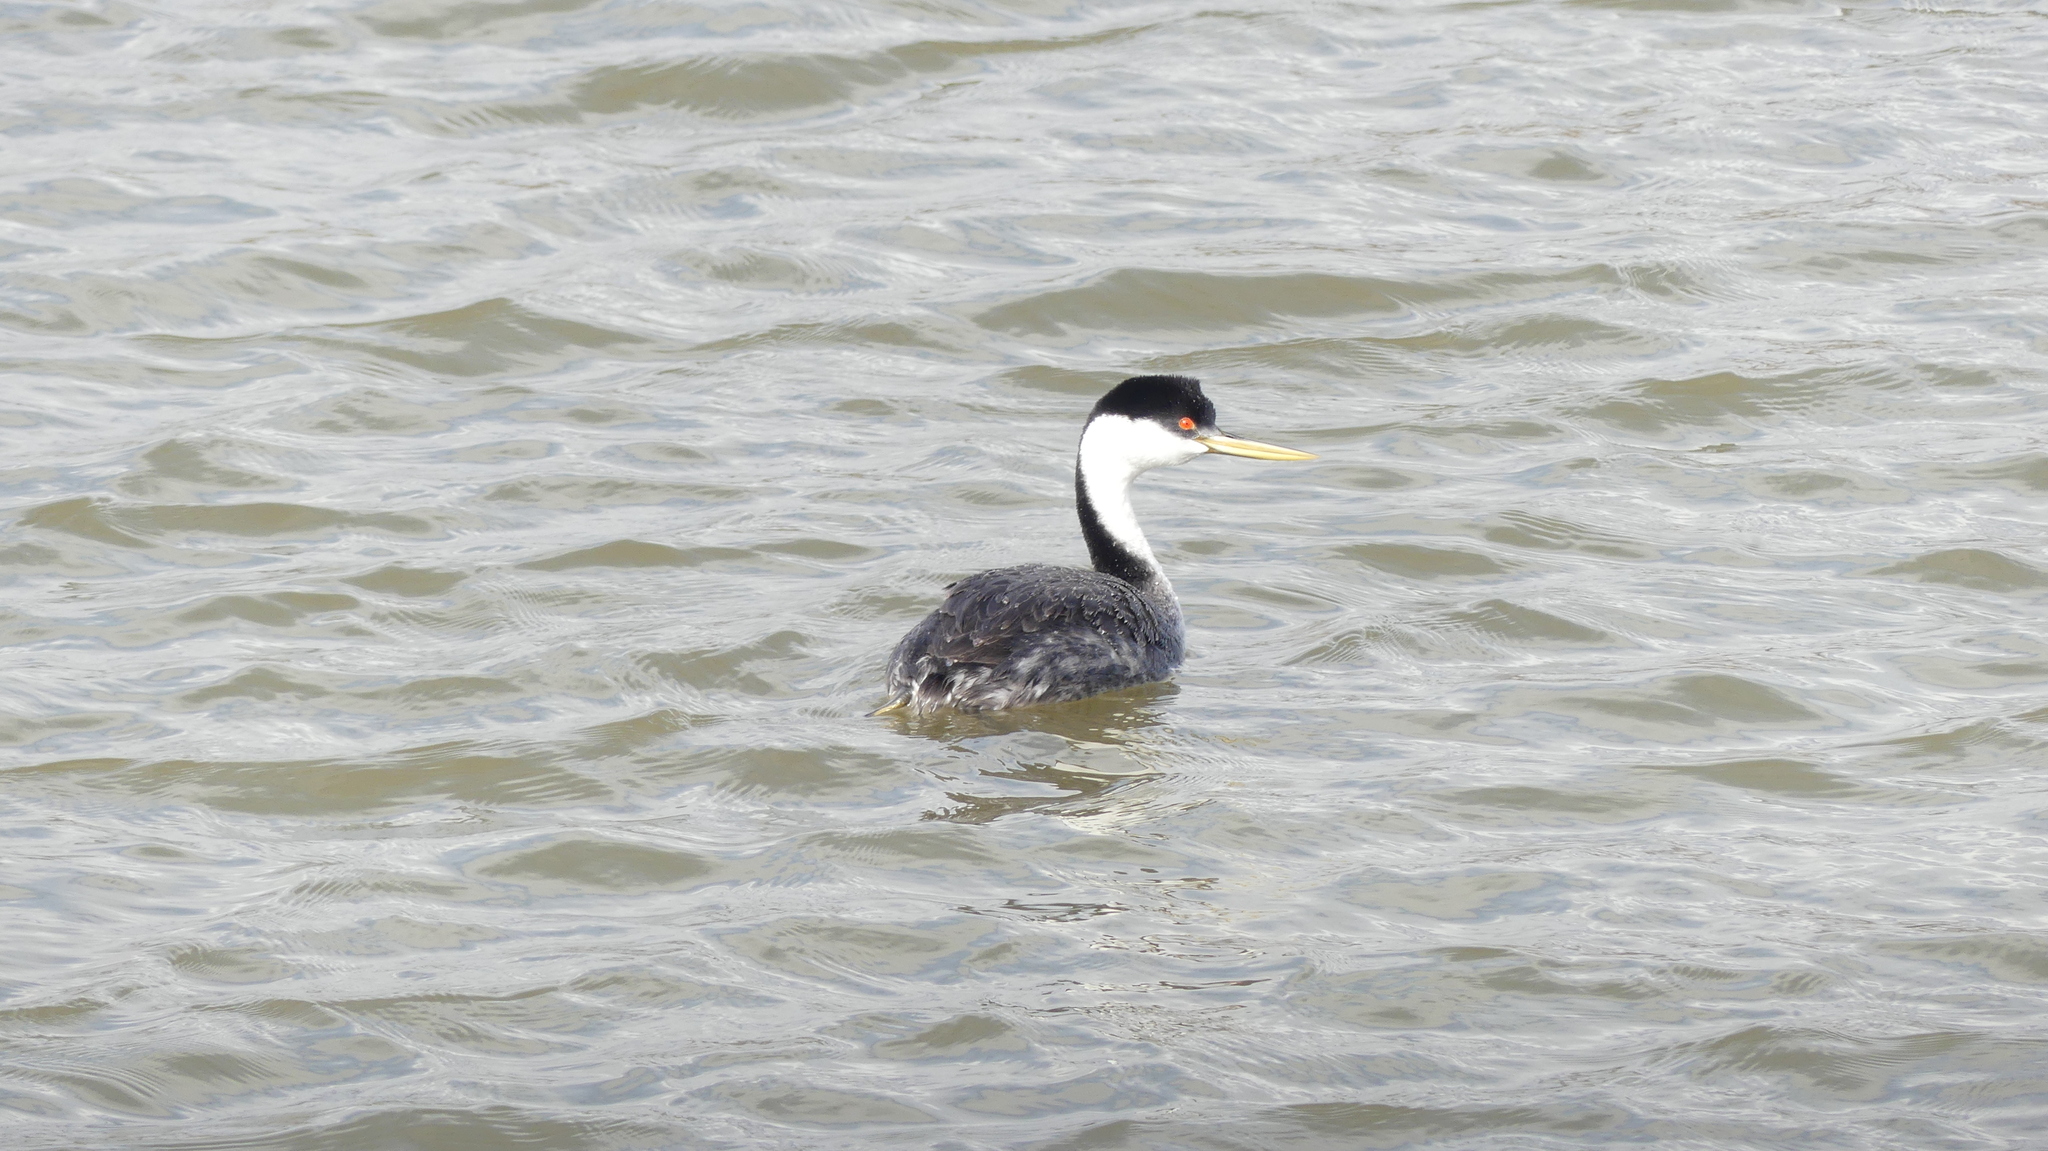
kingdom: Animalia
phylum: Chordata
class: Aves
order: Podicipediformes
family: Podicipedidae
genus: Aechmophorus
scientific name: Aechmophorus occidentalis
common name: Western grebe
